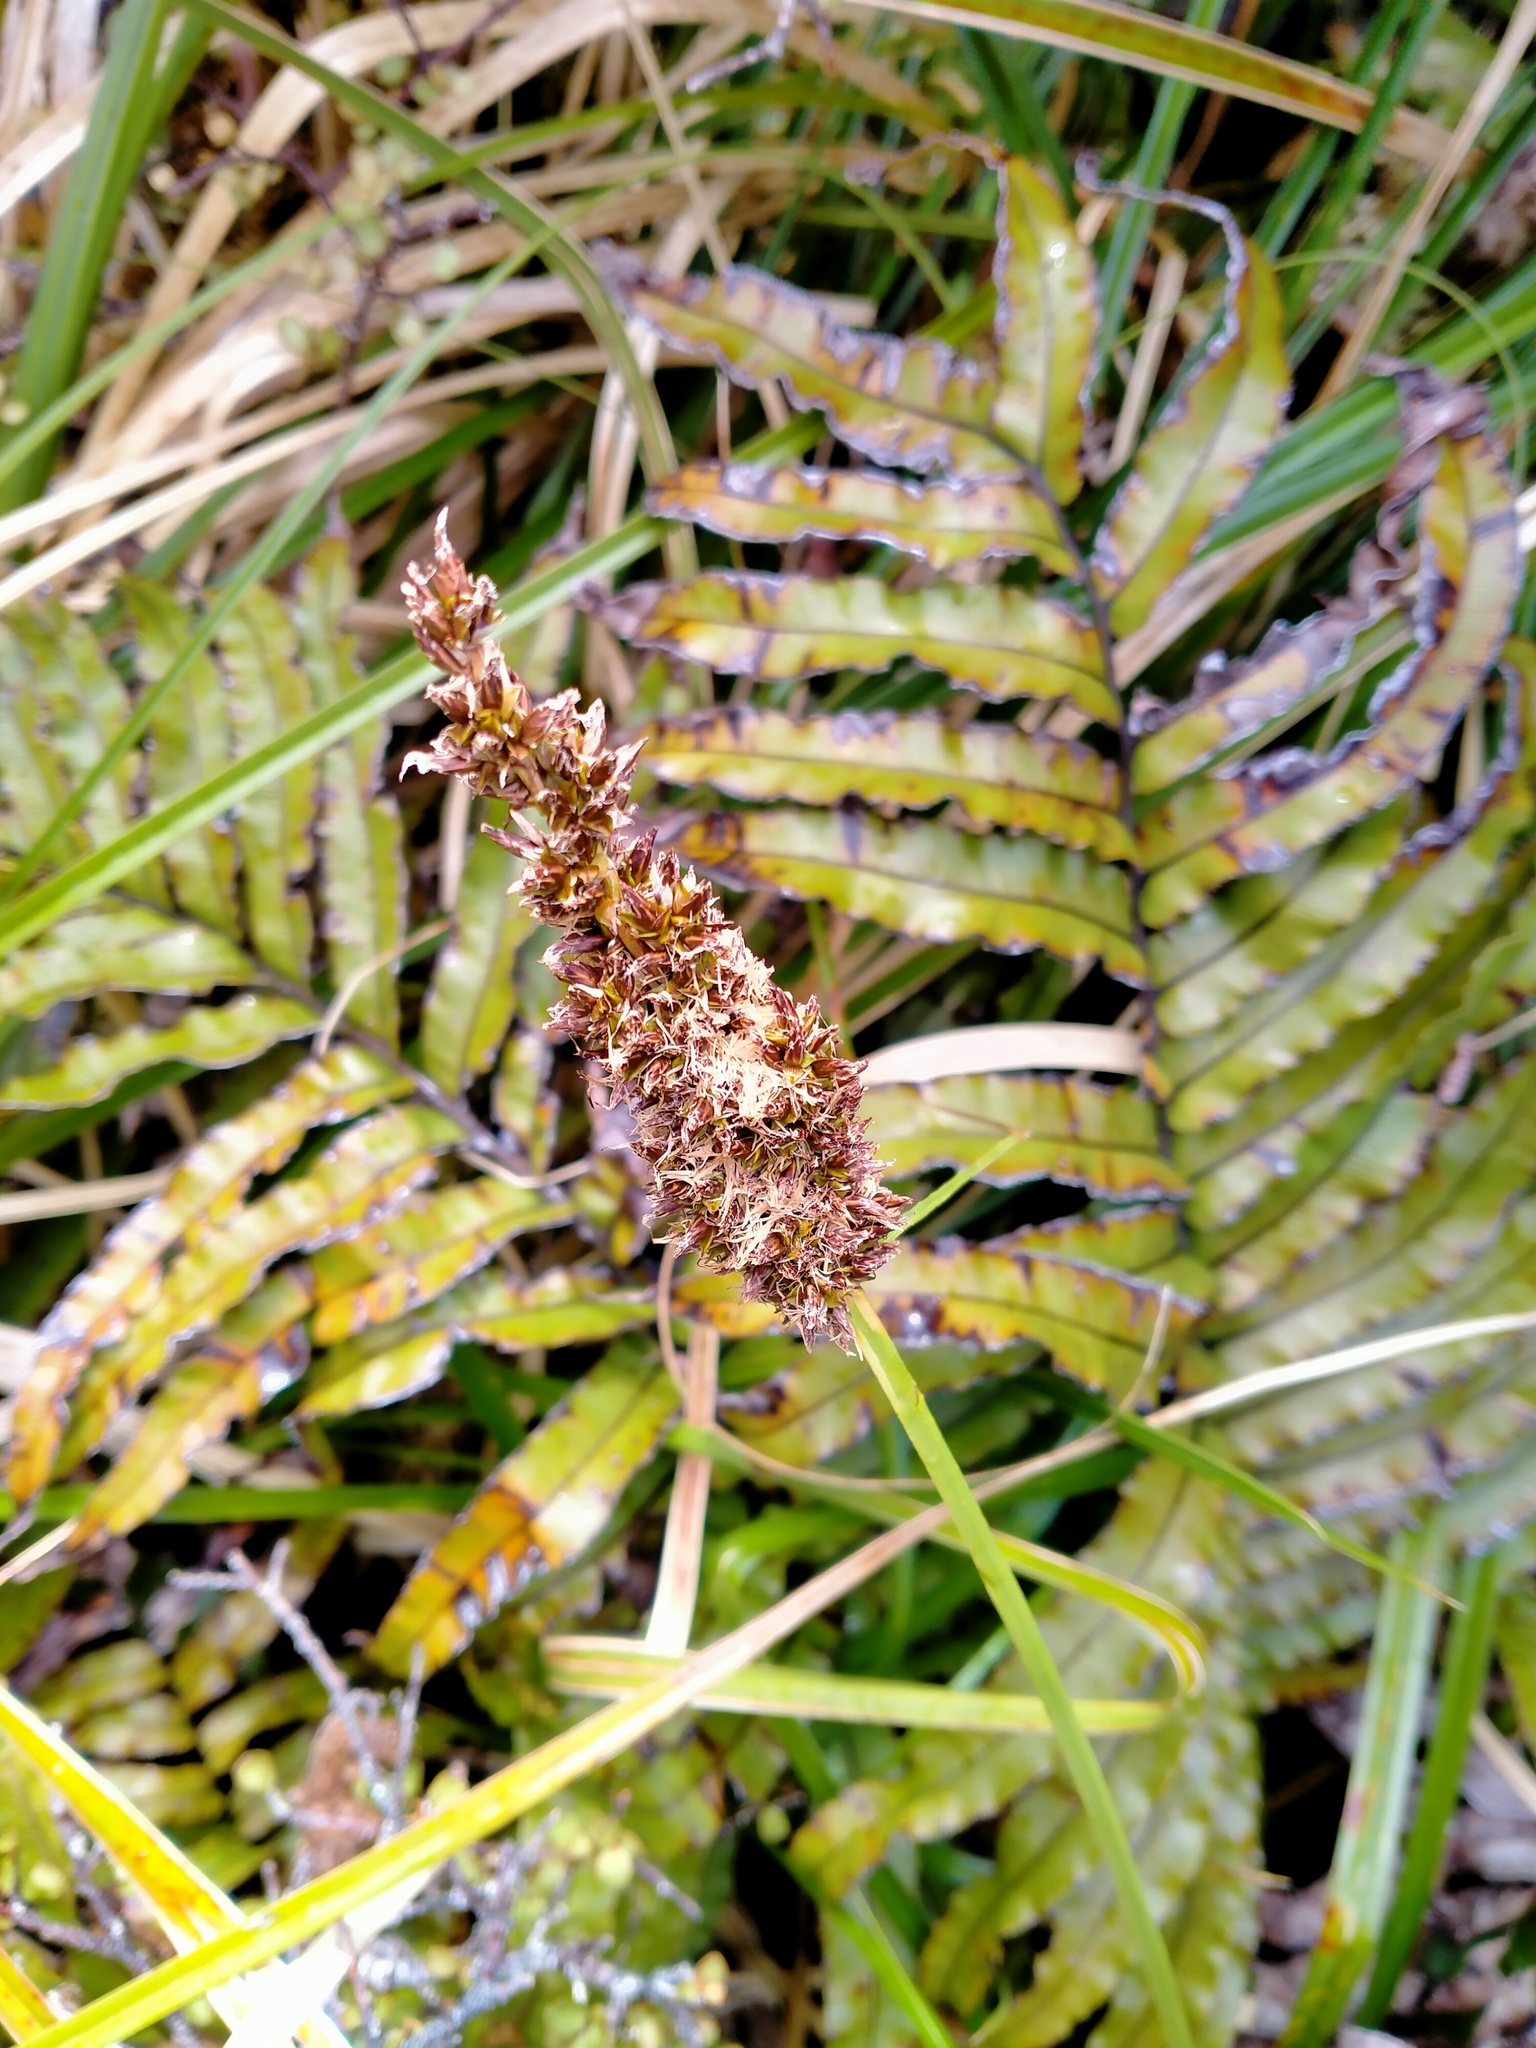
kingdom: Plantae
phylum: Tracheophyta
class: Liliopsida
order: Poales
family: Cyperaceae
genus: Carex
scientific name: Carex appressa
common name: Tussock sedge
